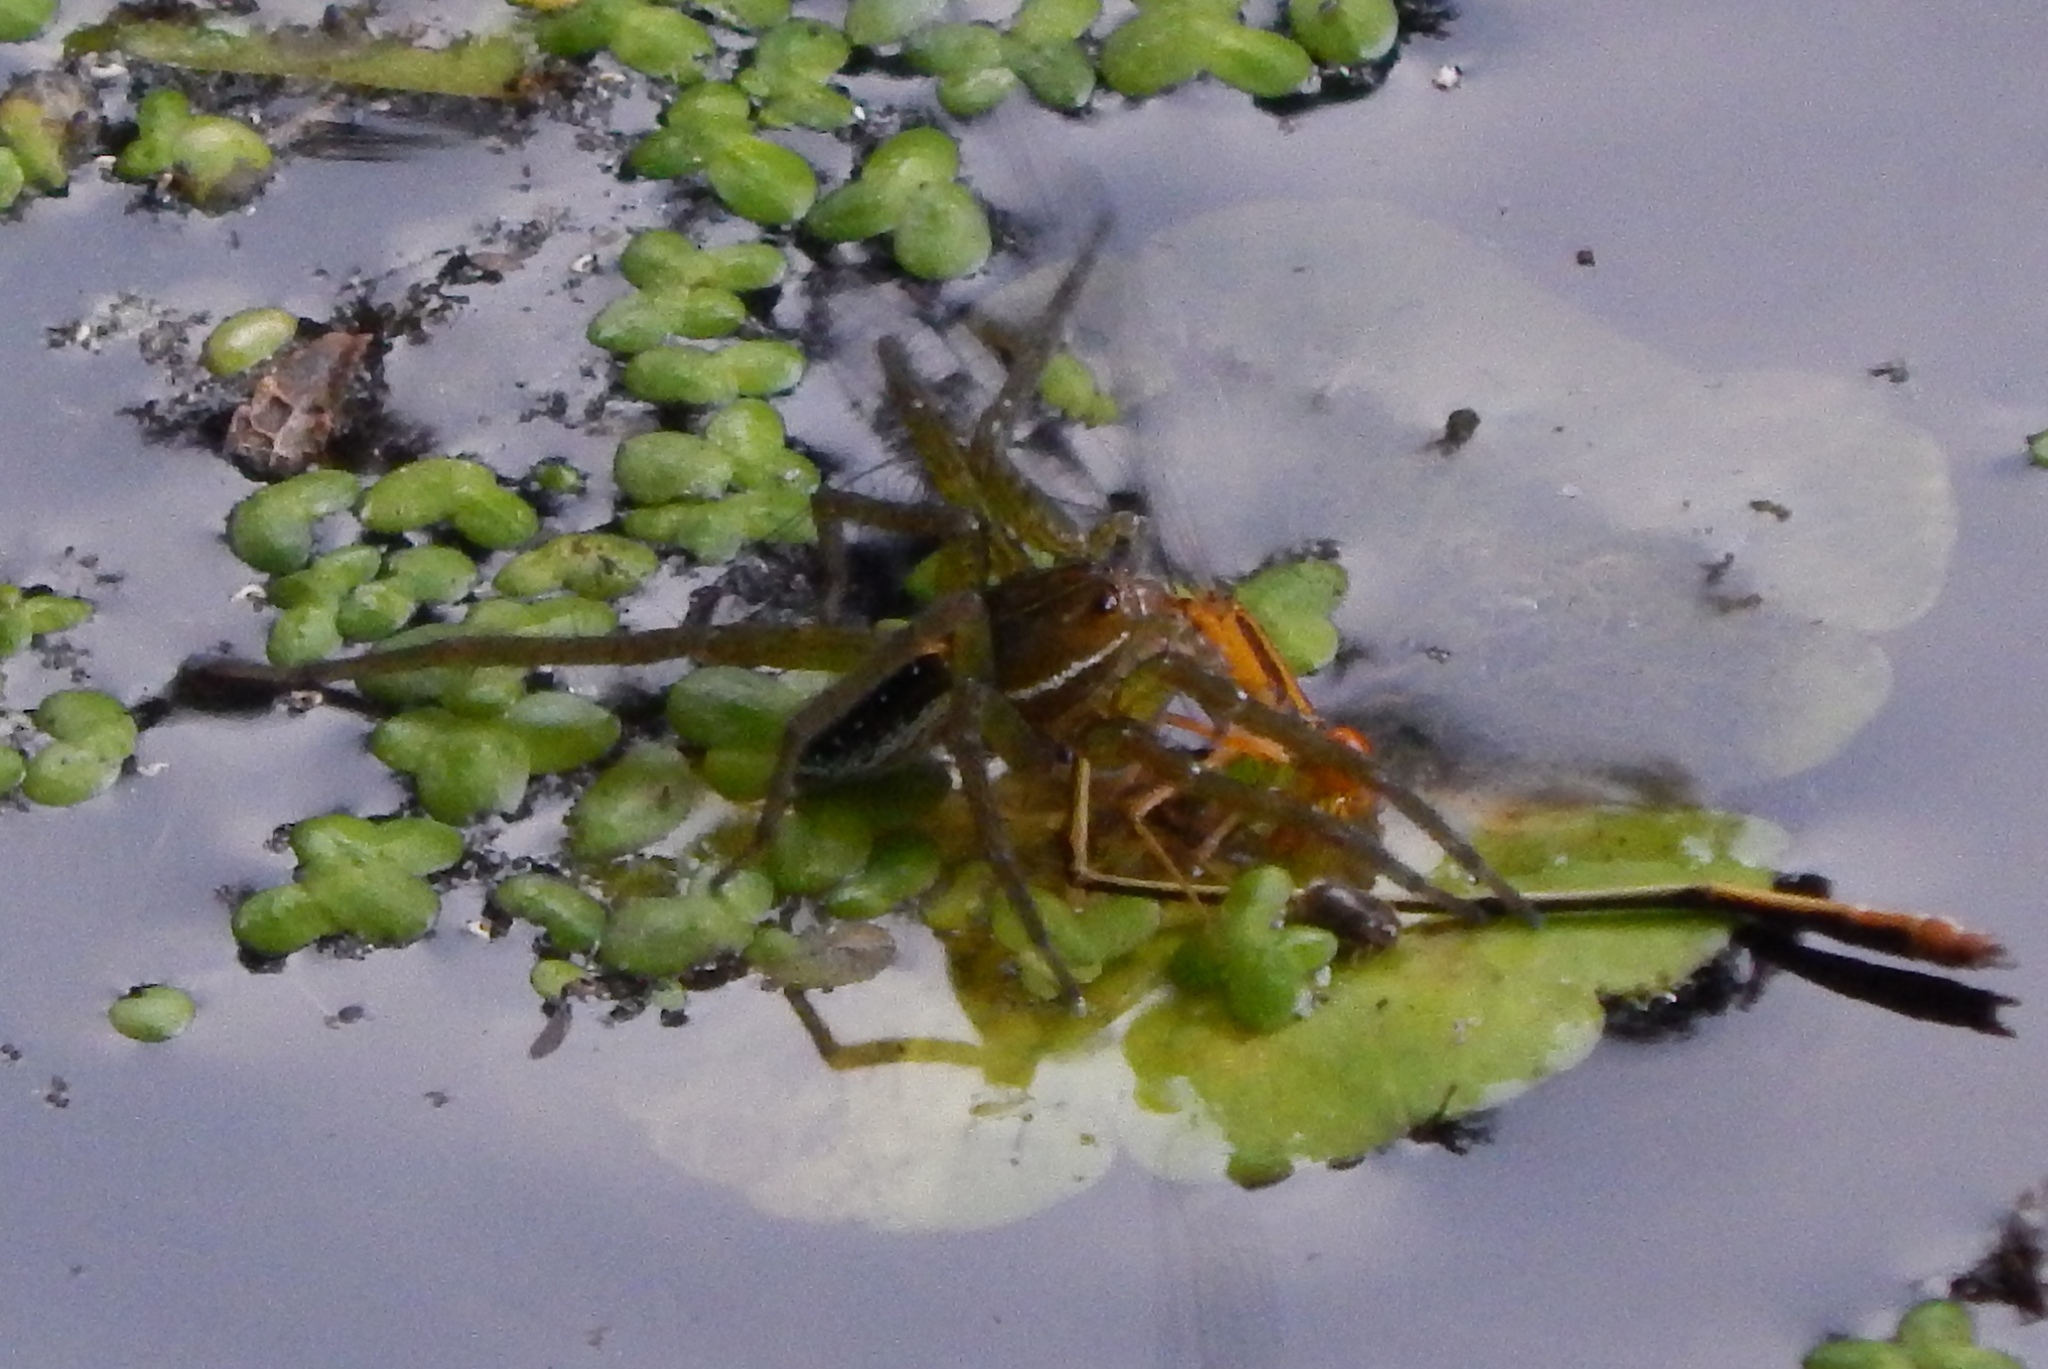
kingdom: Animalia
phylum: Arthropoda
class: Arachnida
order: Araneae
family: Pisauridae
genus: Dolomedes
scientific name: Dolomedes triton
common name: Six-spotted fishing spider
